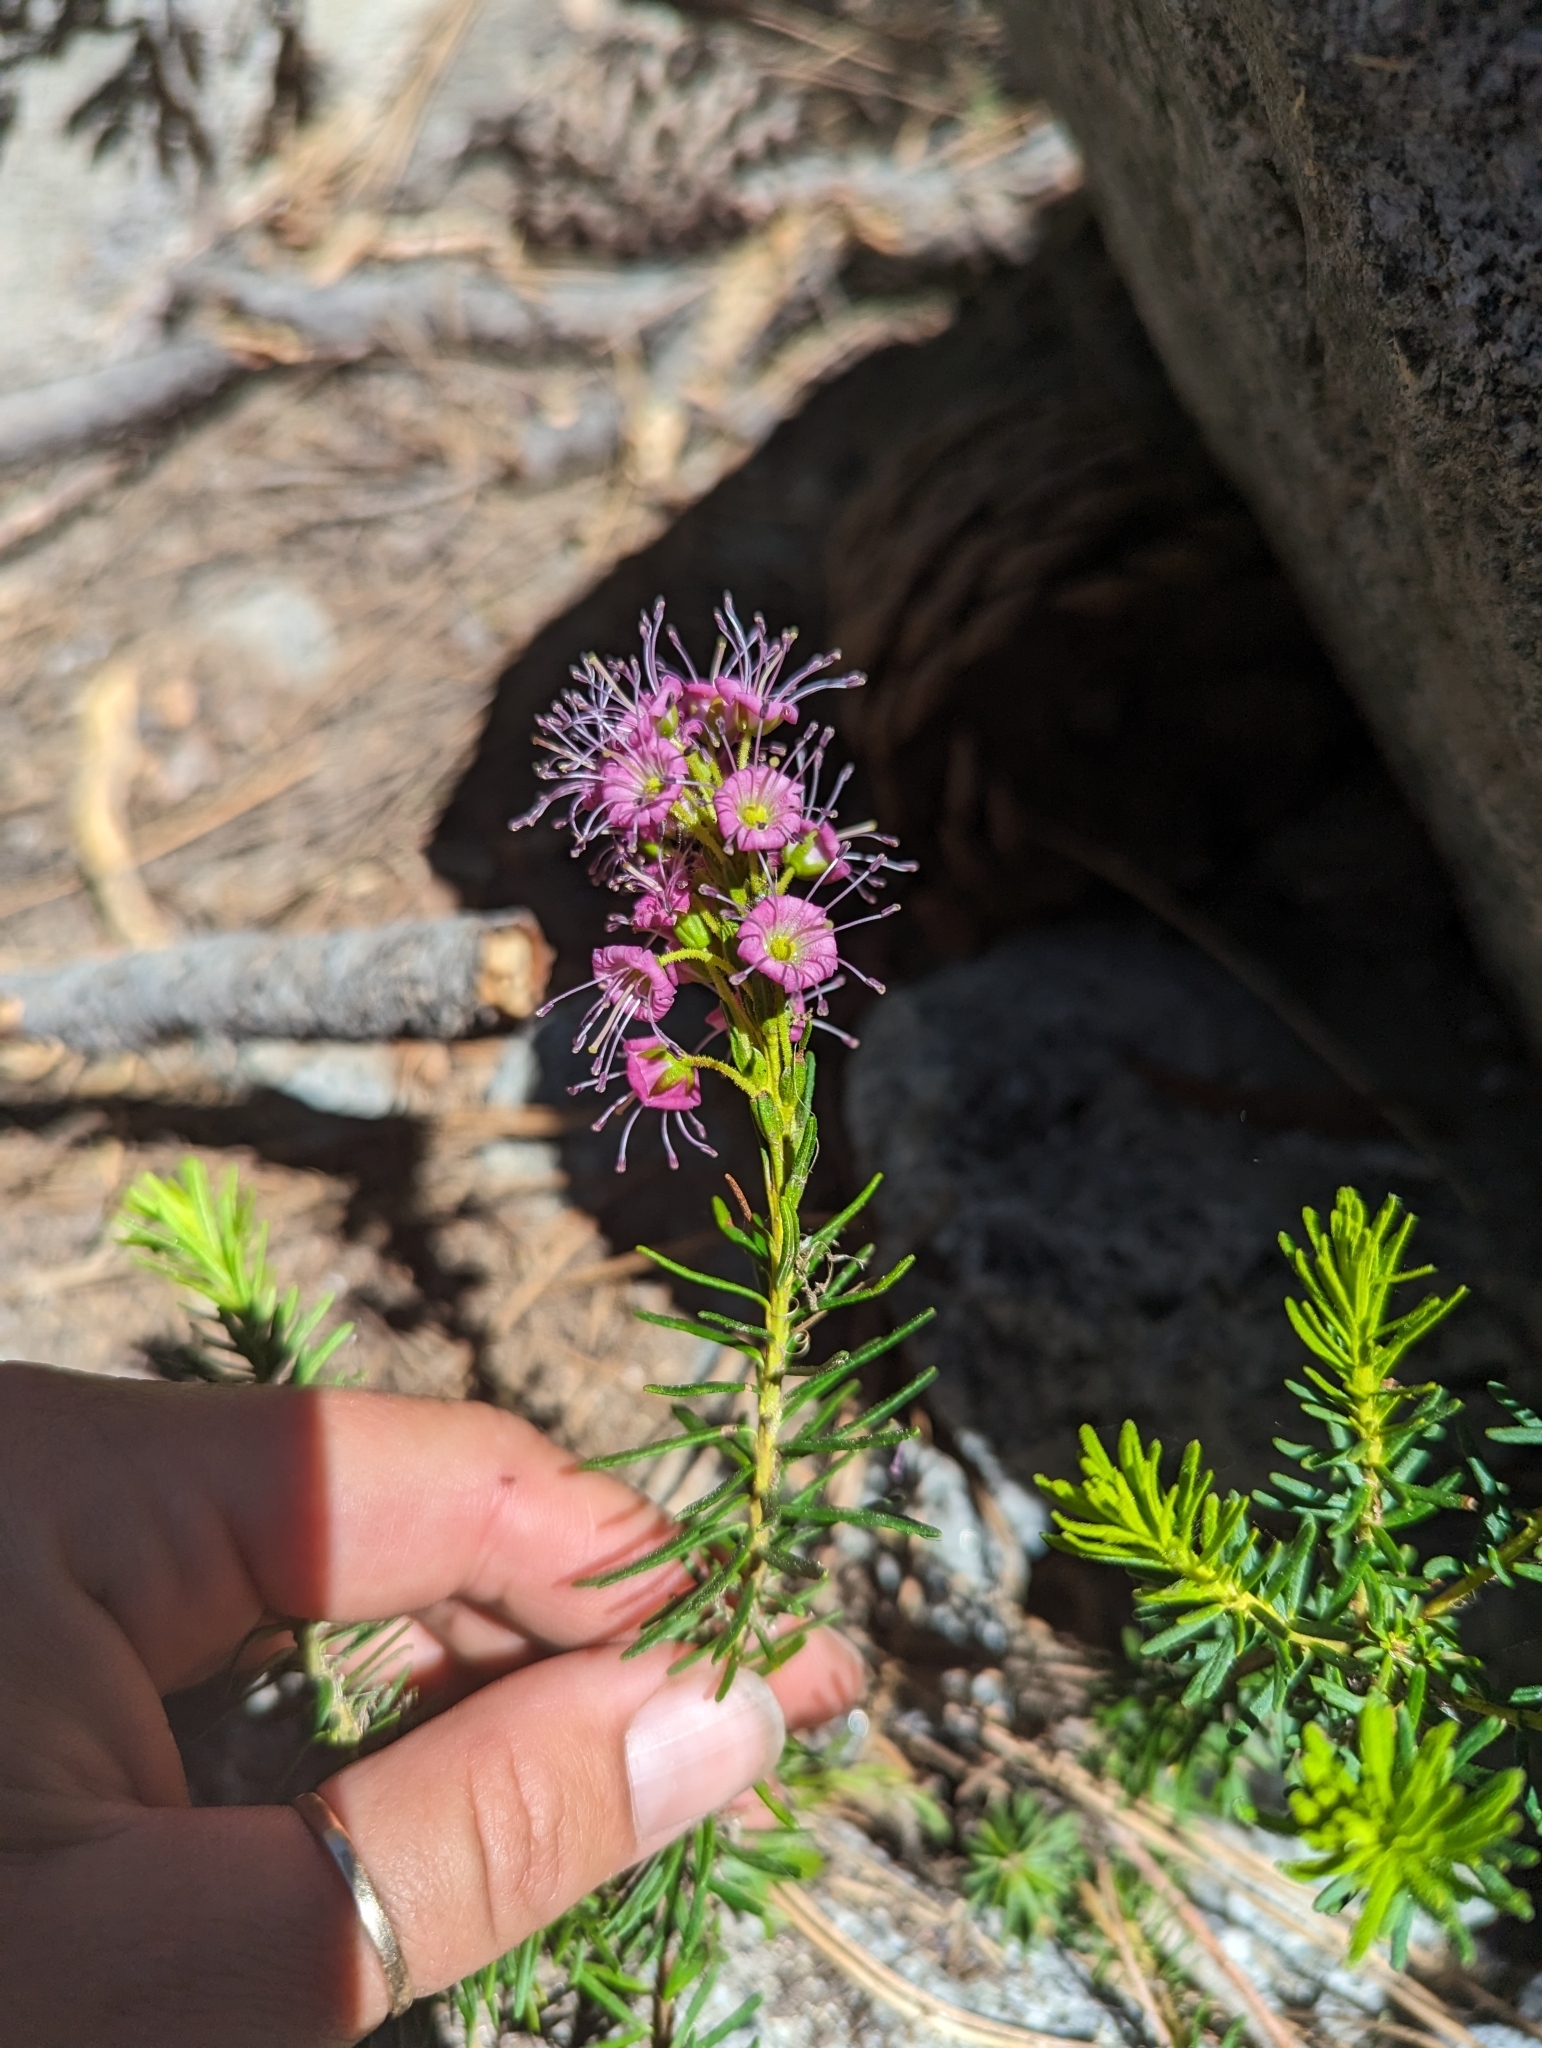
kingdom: Plantae
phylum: Tracheophyta
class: Magnoliopsida
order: Ericales
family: Ericaceae
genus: Phyllodoce
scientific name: Phyllodoce breweri
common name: Brewer's mountain-heather
